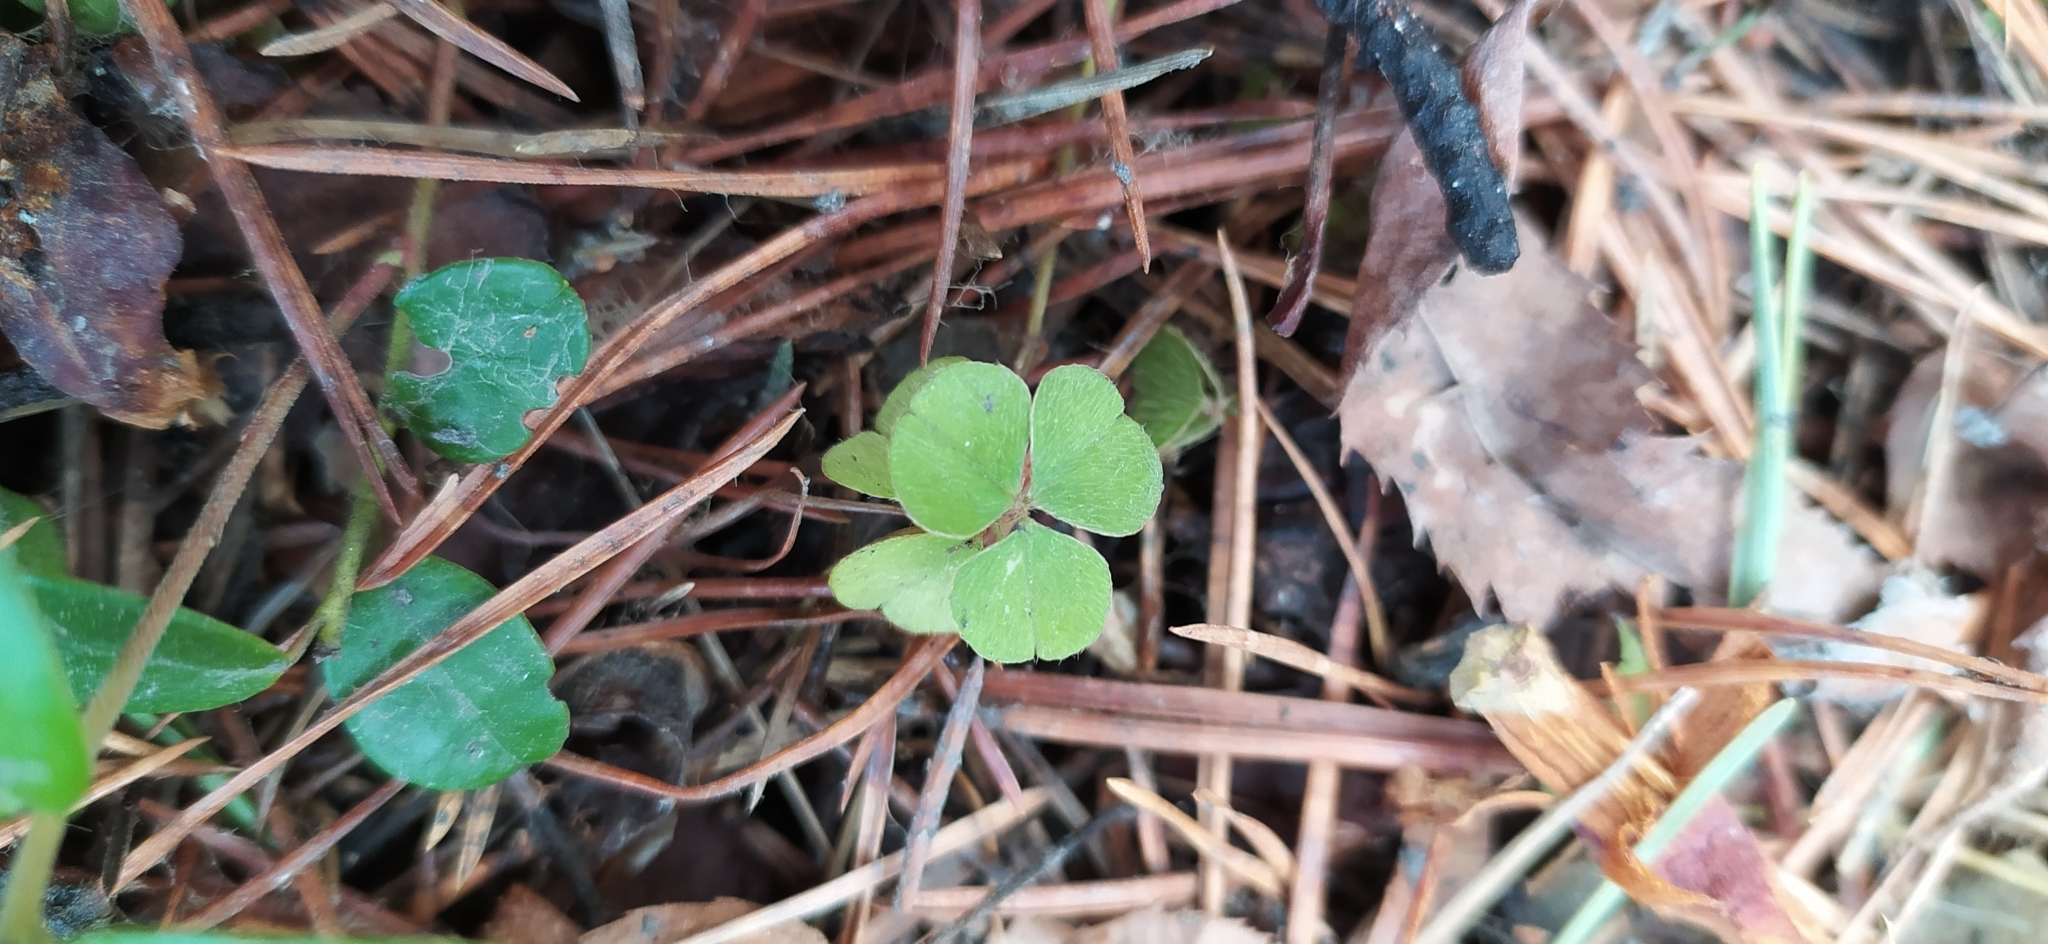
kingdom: Plantae
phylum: Tracheophyta
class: Magnoliopsida
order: Oxalidales
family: Oxalidaceae
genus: Oxalis
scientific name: Oxalis acetosella
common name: Wood-sorrel
